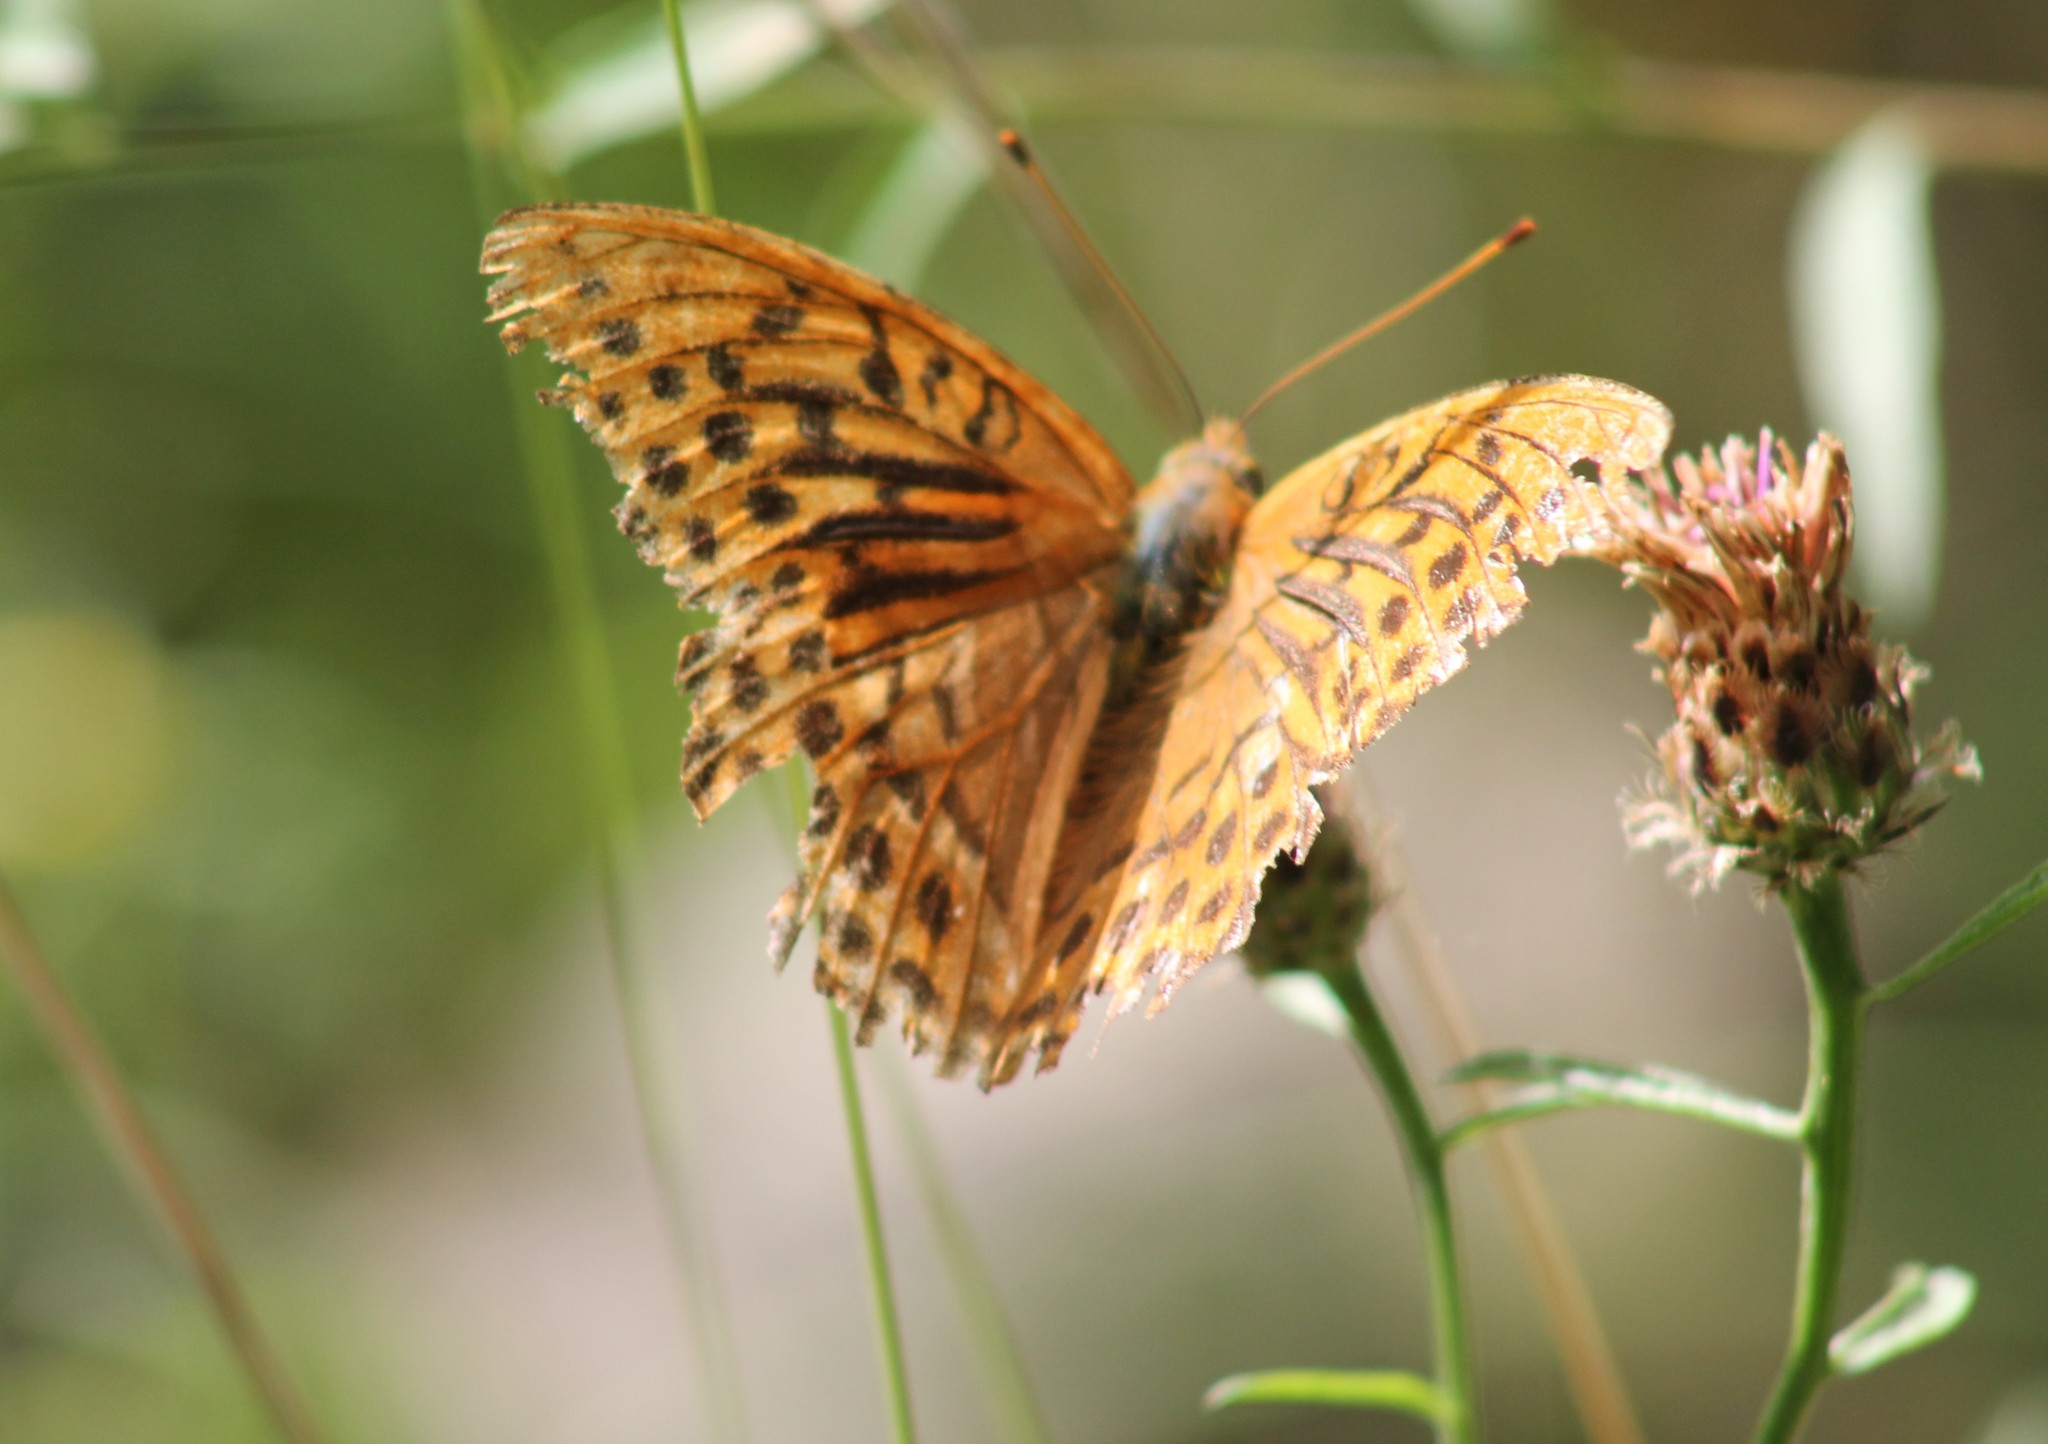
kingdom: Animalia
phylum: Arthropoda
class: Insecta
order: Lepidoptera
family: Nymphalidae
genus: Argynnis
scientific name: Argynnis paphia
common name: Silver-washed fritillary
